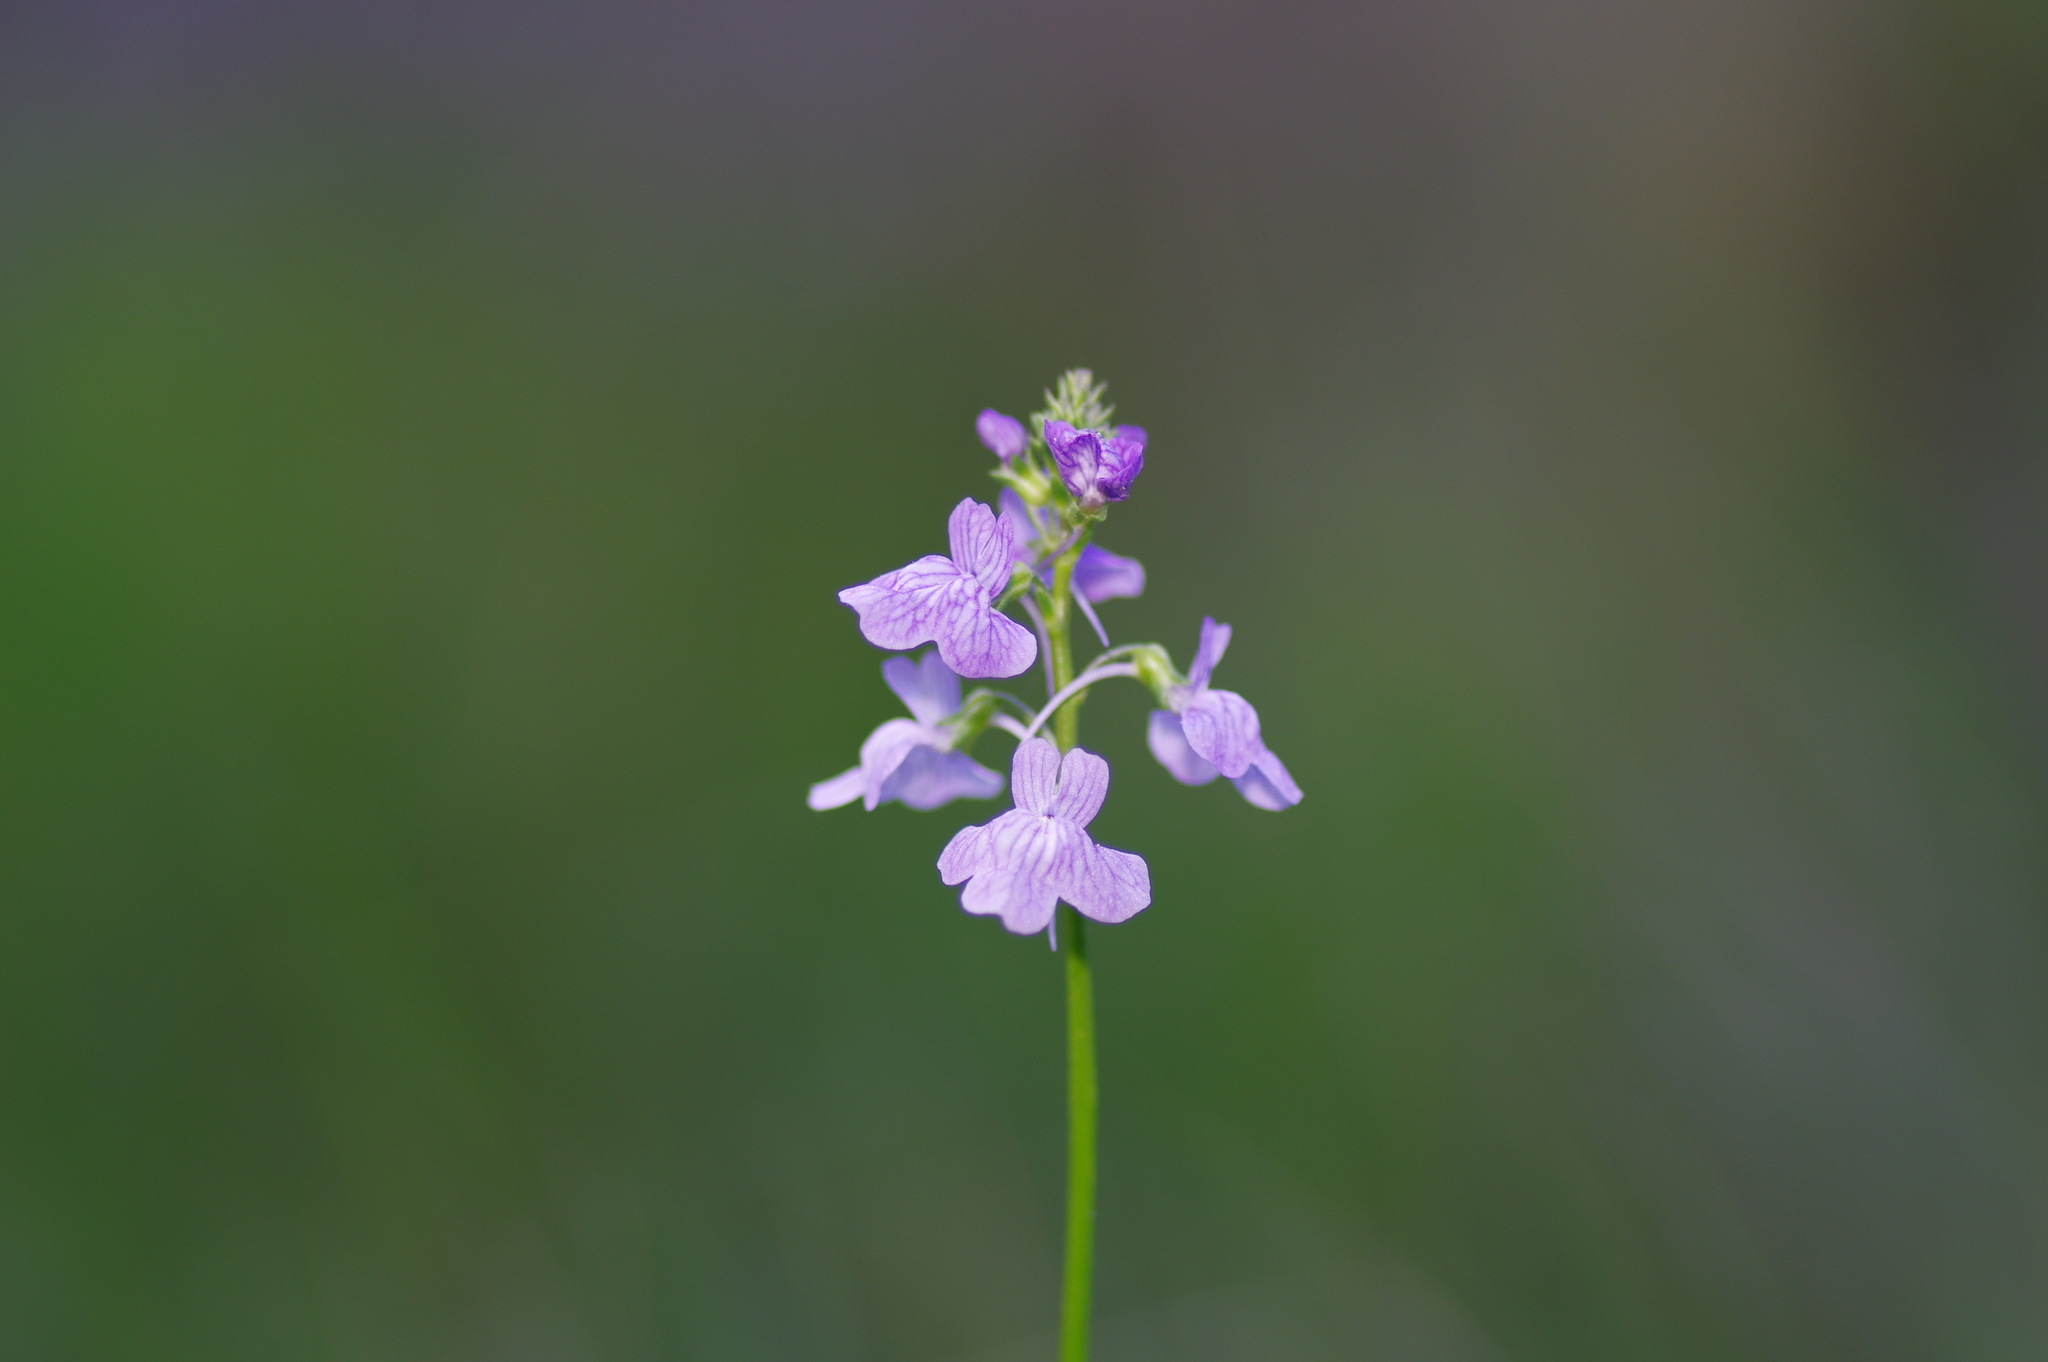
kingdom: Plantae
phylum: Tracheophyta
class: Magnoliopsida
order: Lamiales
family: Plantaginaceae
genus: Nuttallanthus
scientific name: Nuttallanthus texanus
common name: Texas toadflax
